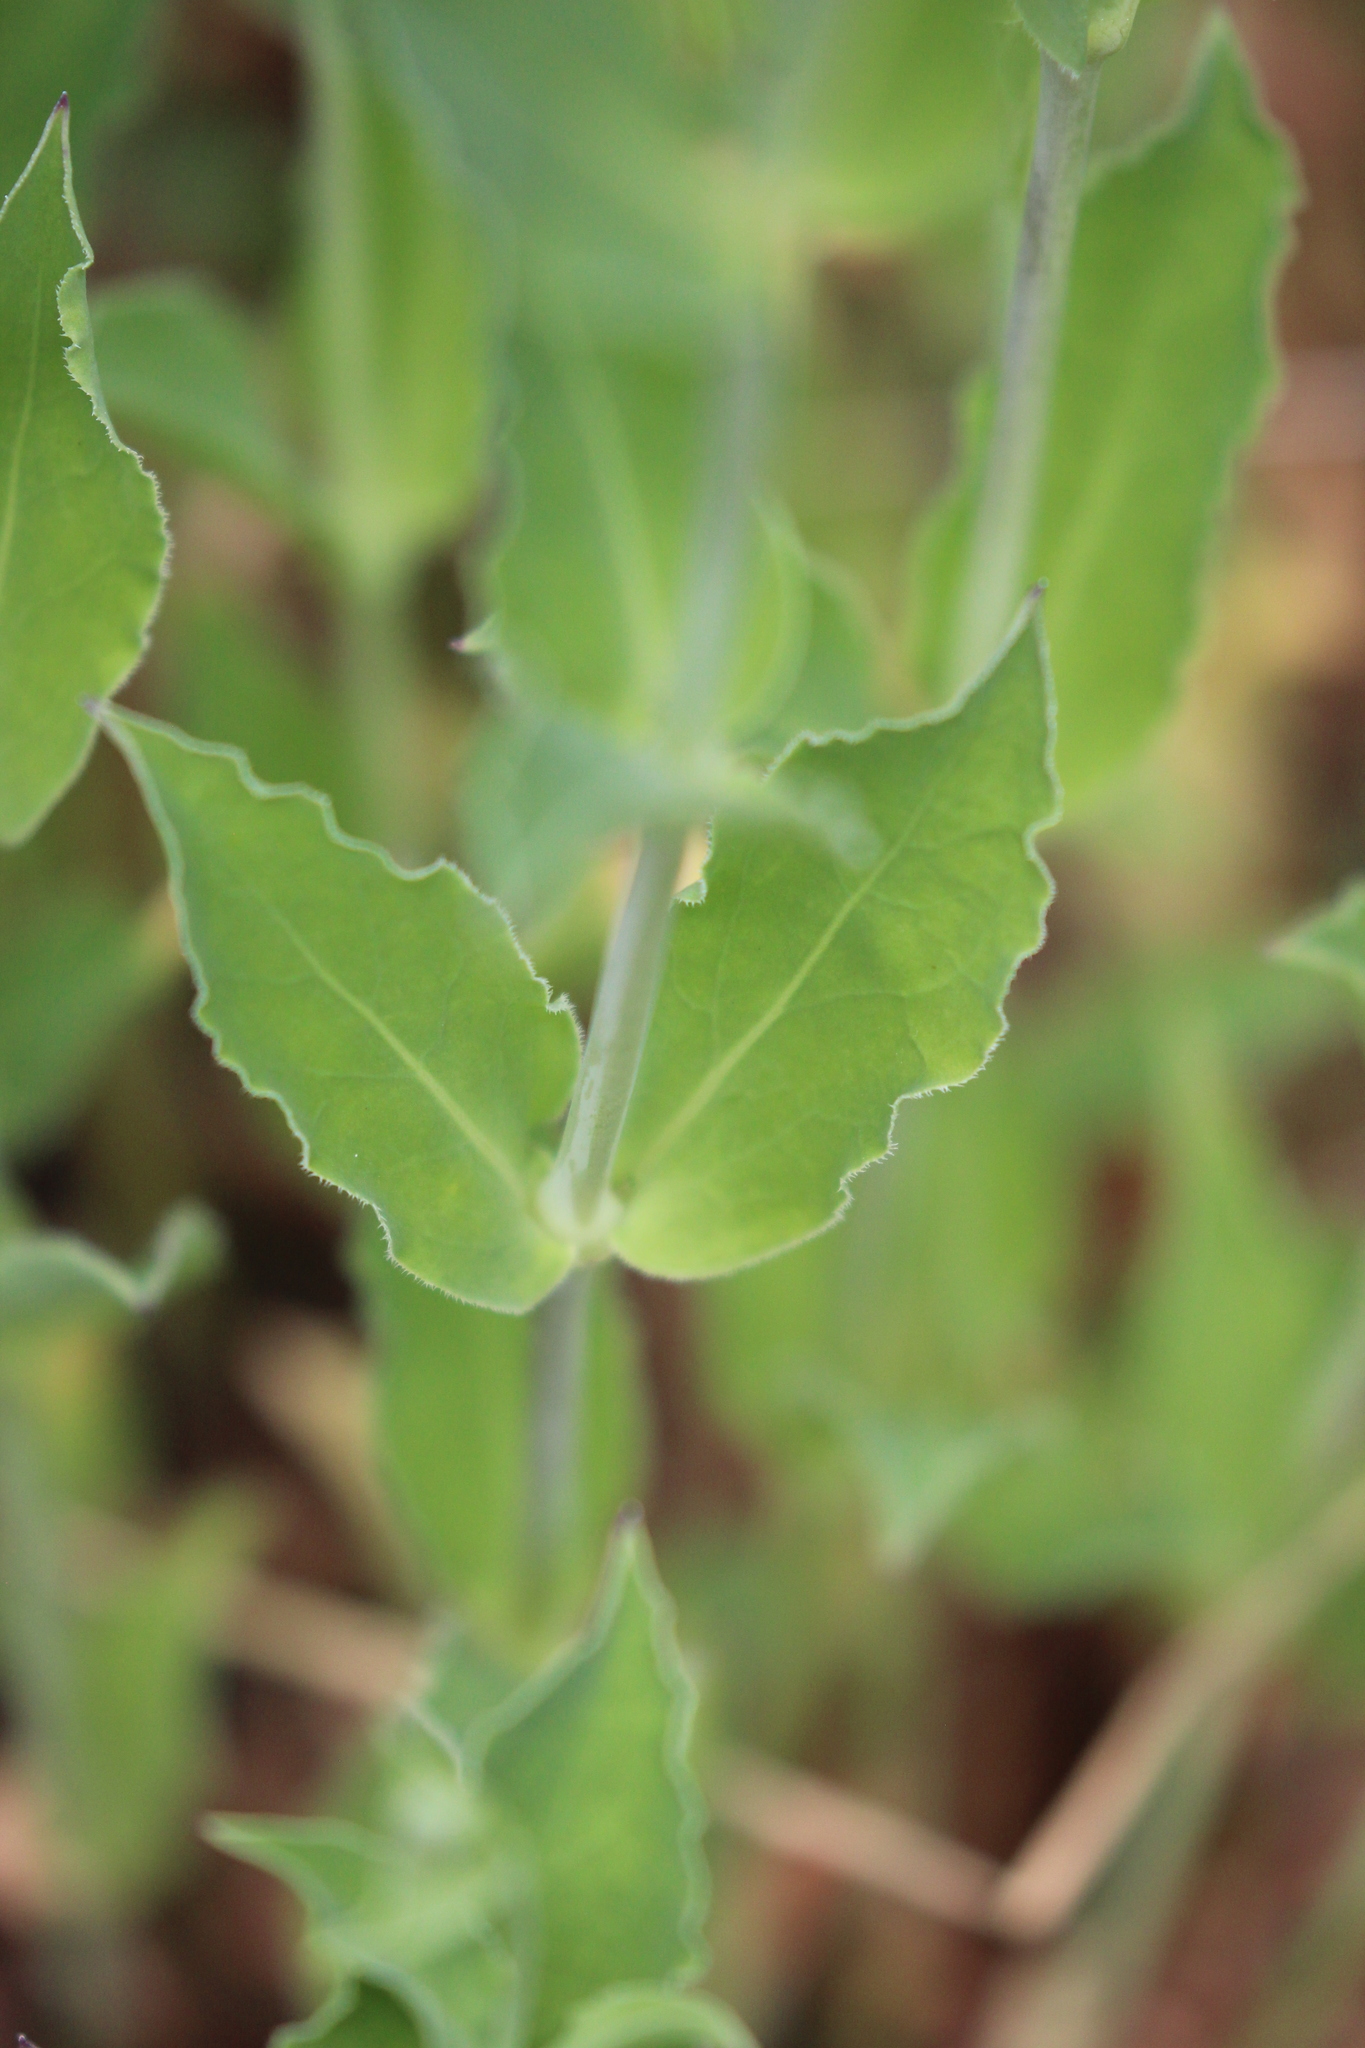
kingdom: Plantae
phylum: Tracheophyta
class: Magnoliopsida
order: Caryophyllales
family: Caryophyllaceae
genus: Silene
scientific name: Silene vulgaris
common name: Bladder campion
